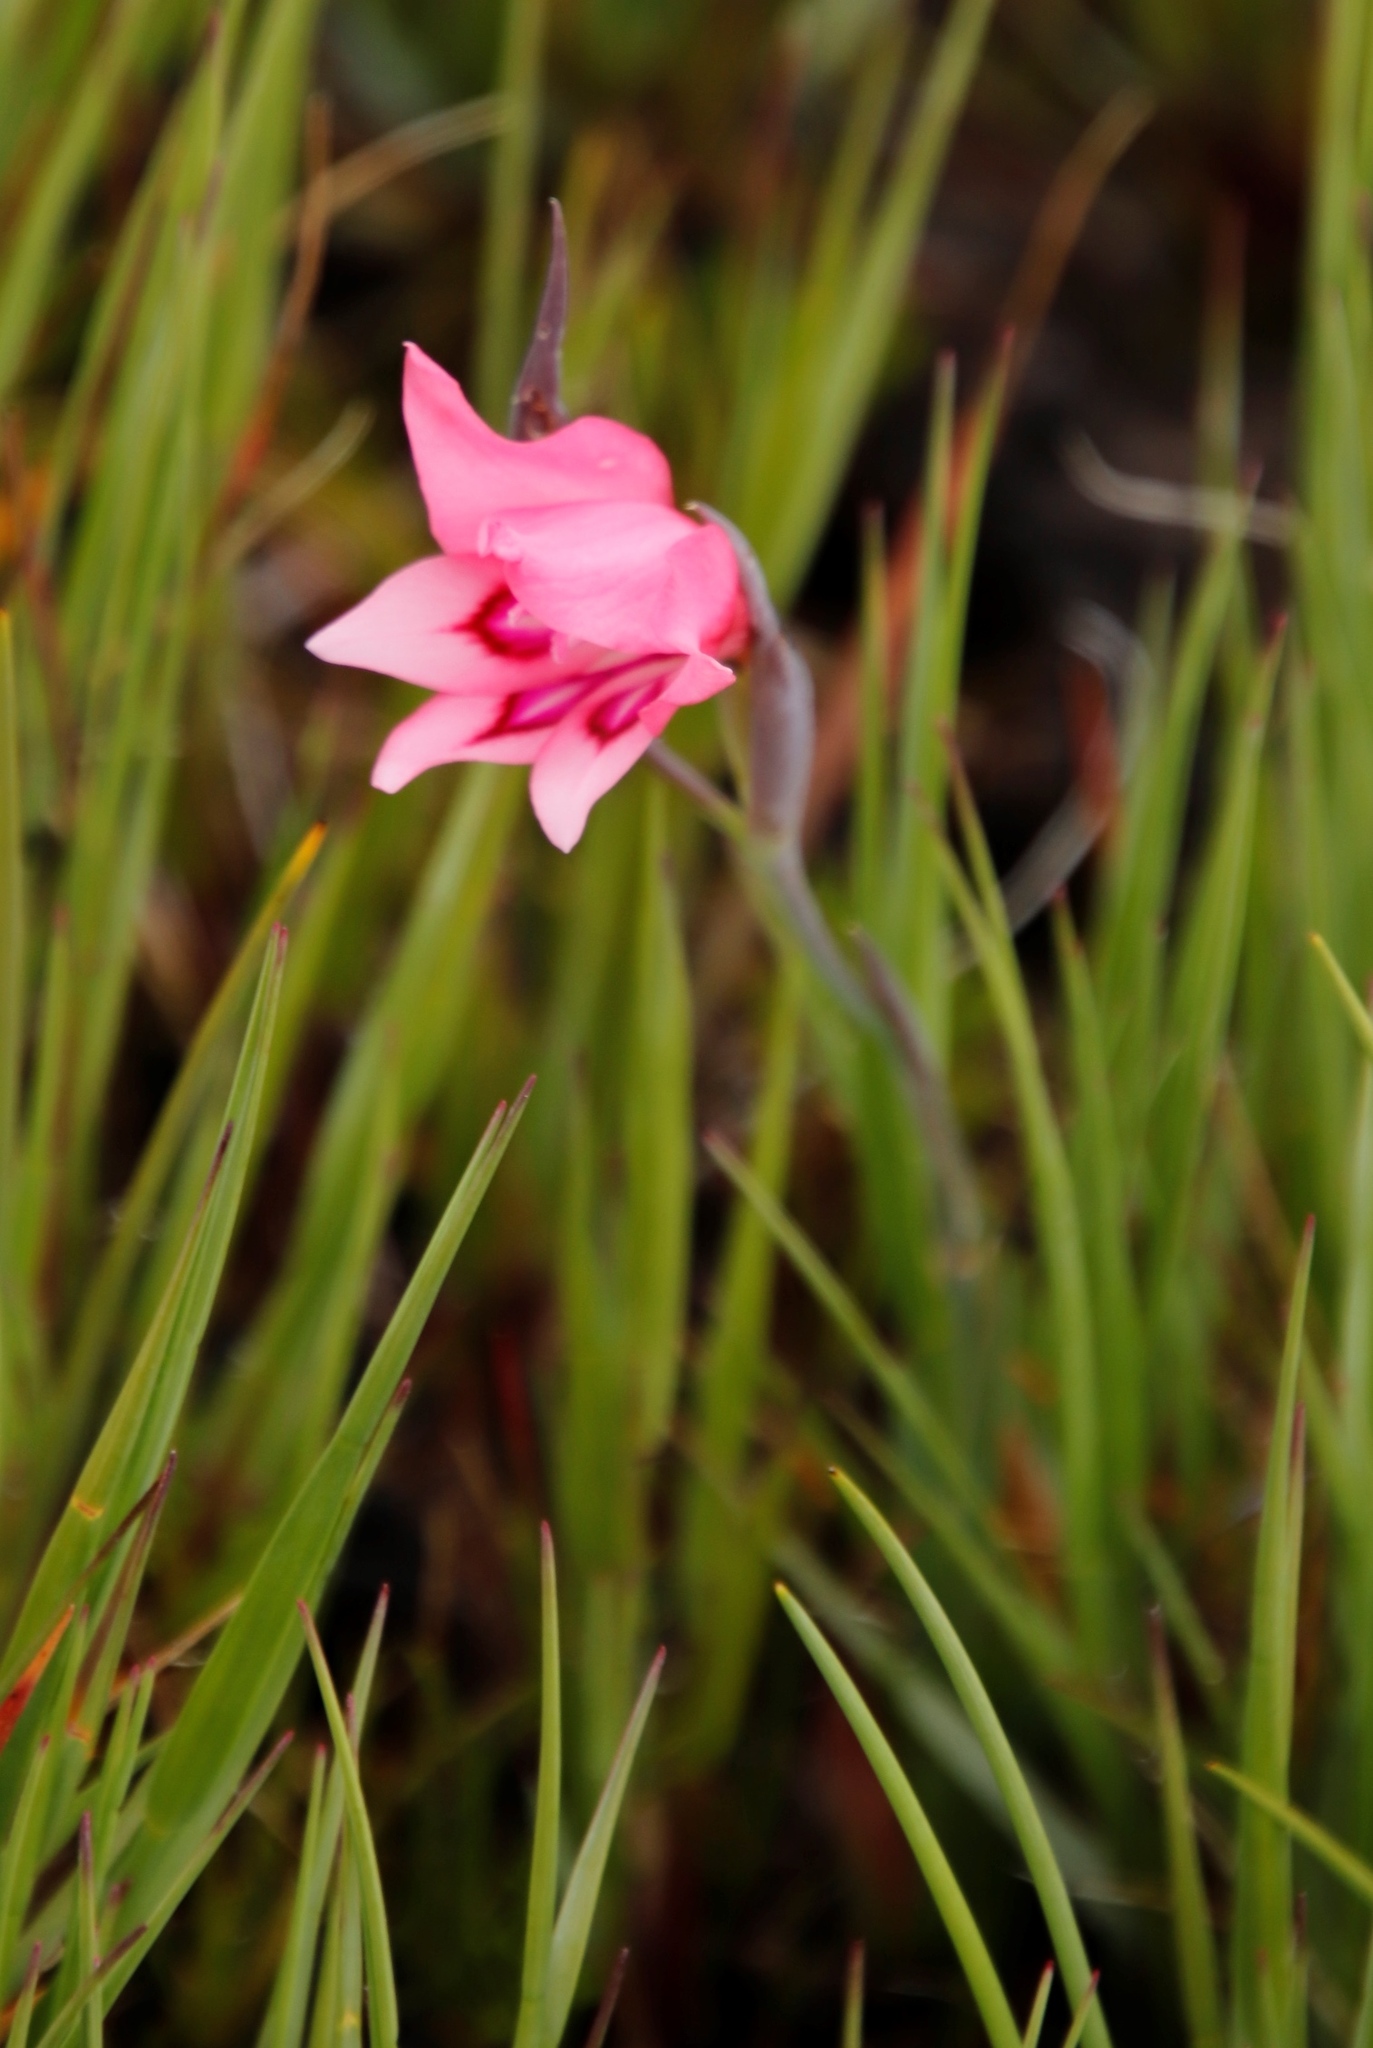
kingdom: Plantae
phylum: Tracheophyta
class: Liliopsida
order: Asparagales
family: Iridaceae
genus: Gladiolus
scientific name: Gladiolus carneus
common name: Painted-lady
